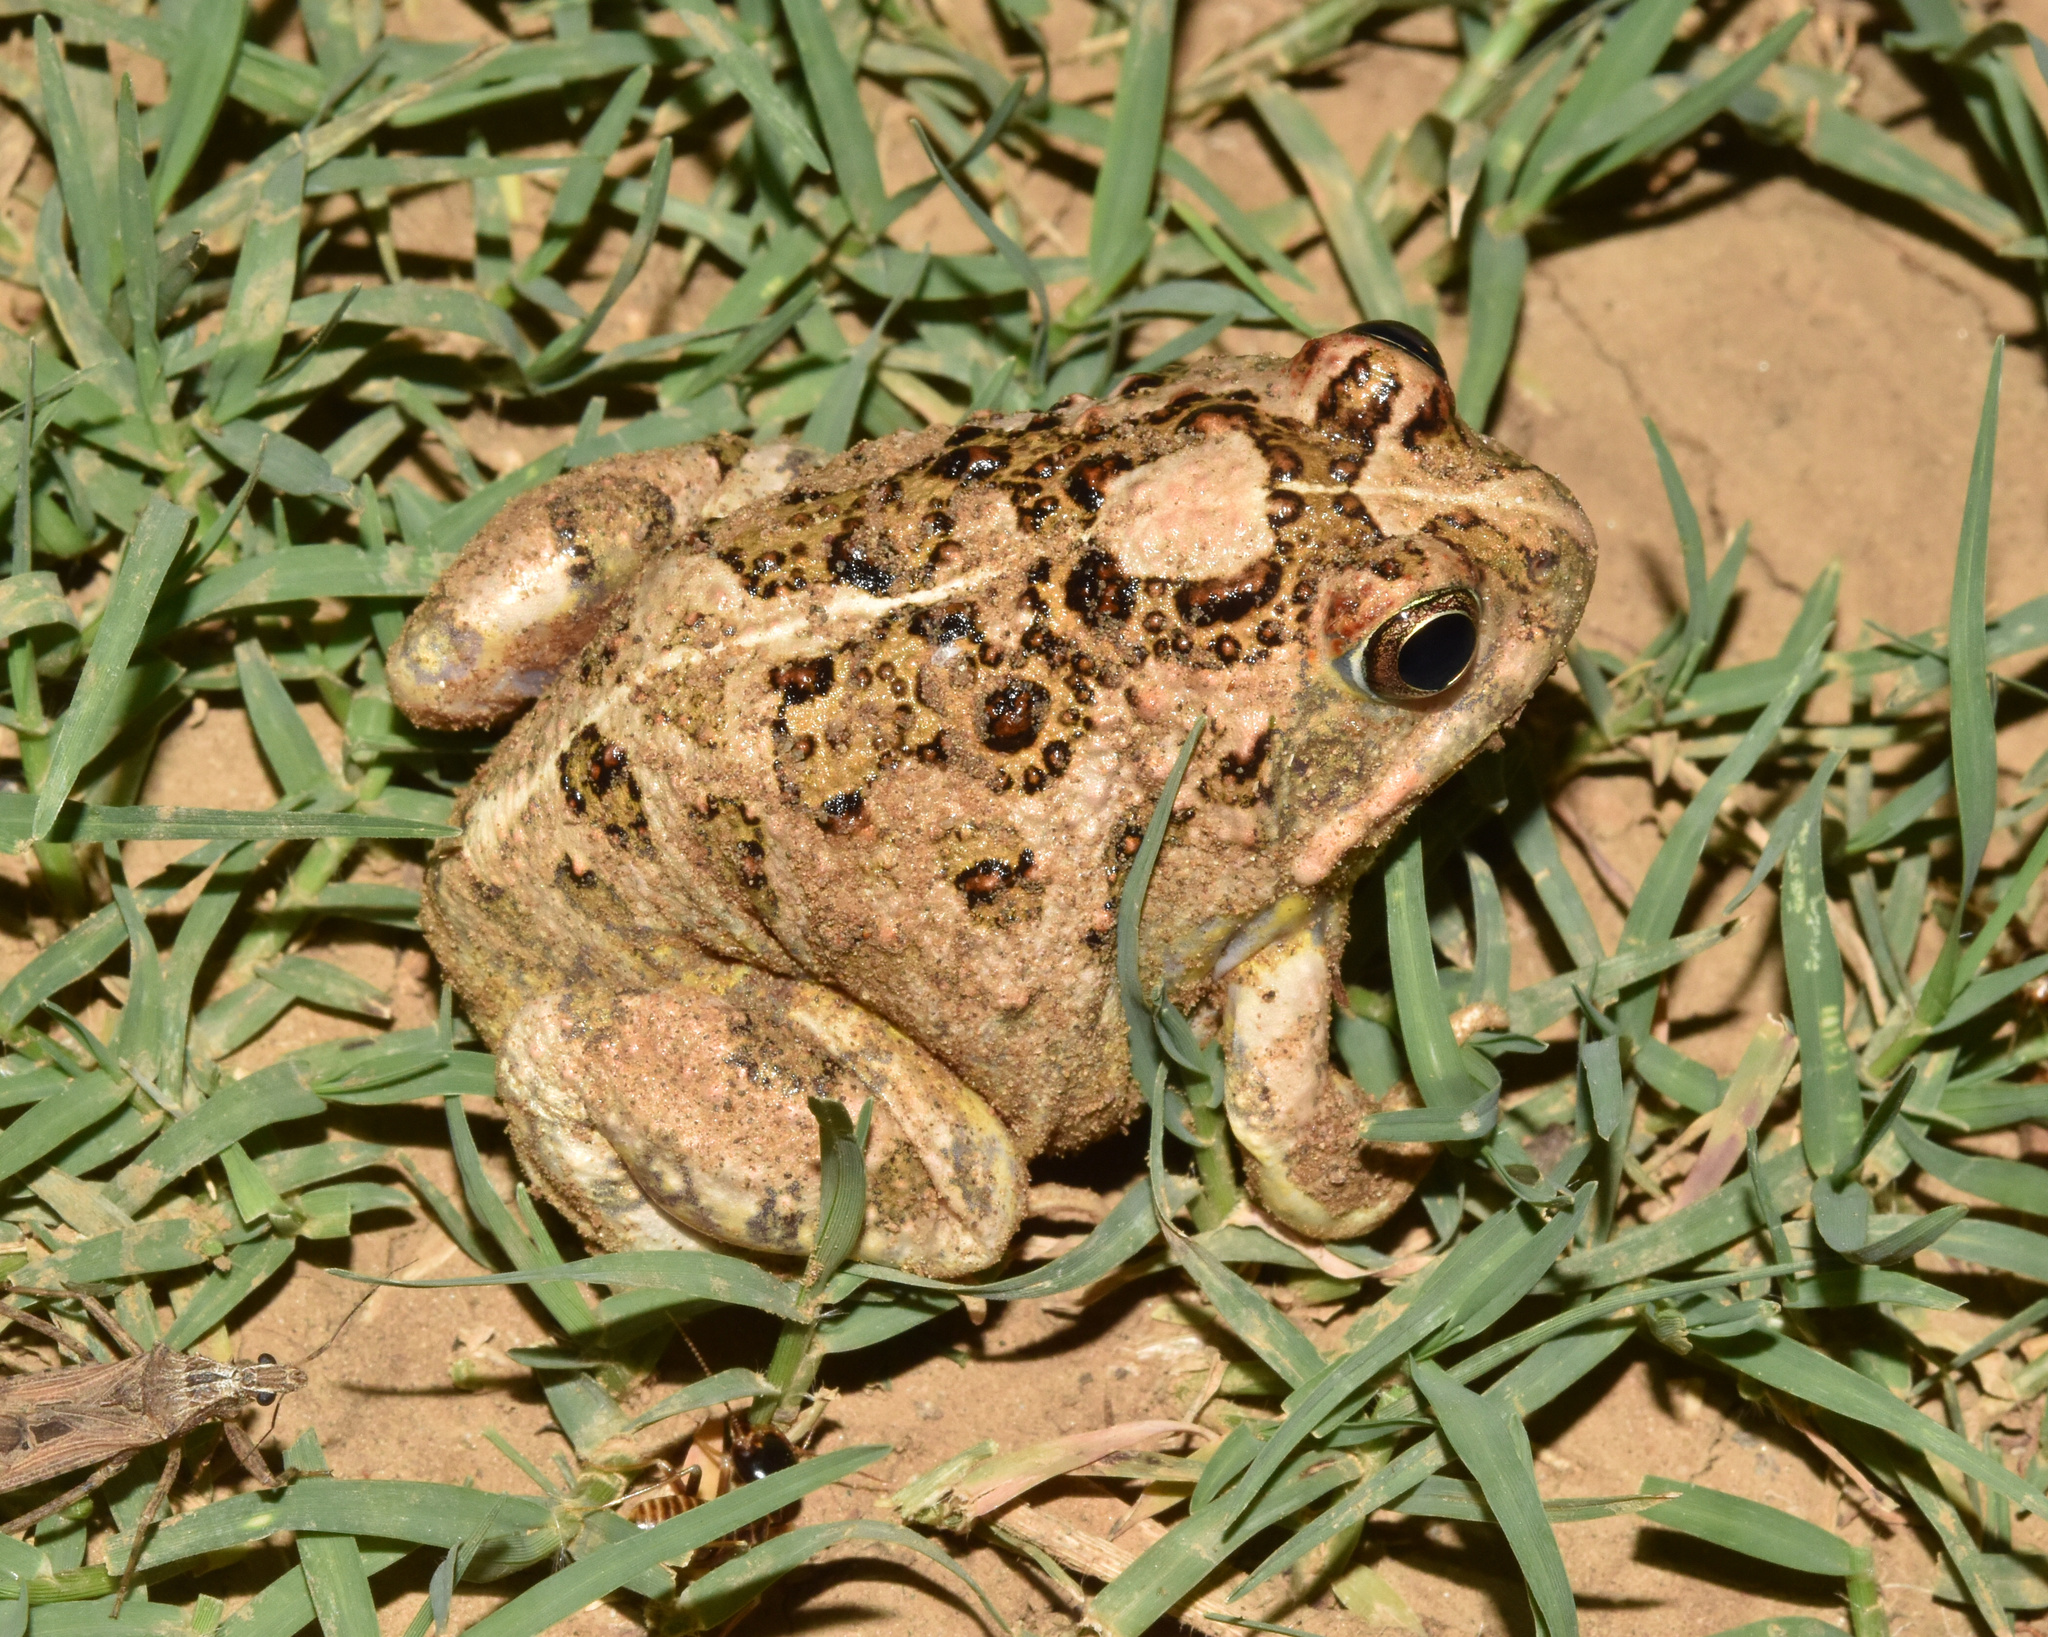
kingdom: Animalia
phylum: Chordata
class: Amphibia
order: Anura
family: Pyxicephalidae
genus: Tomopterna
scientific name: Tomopterna
